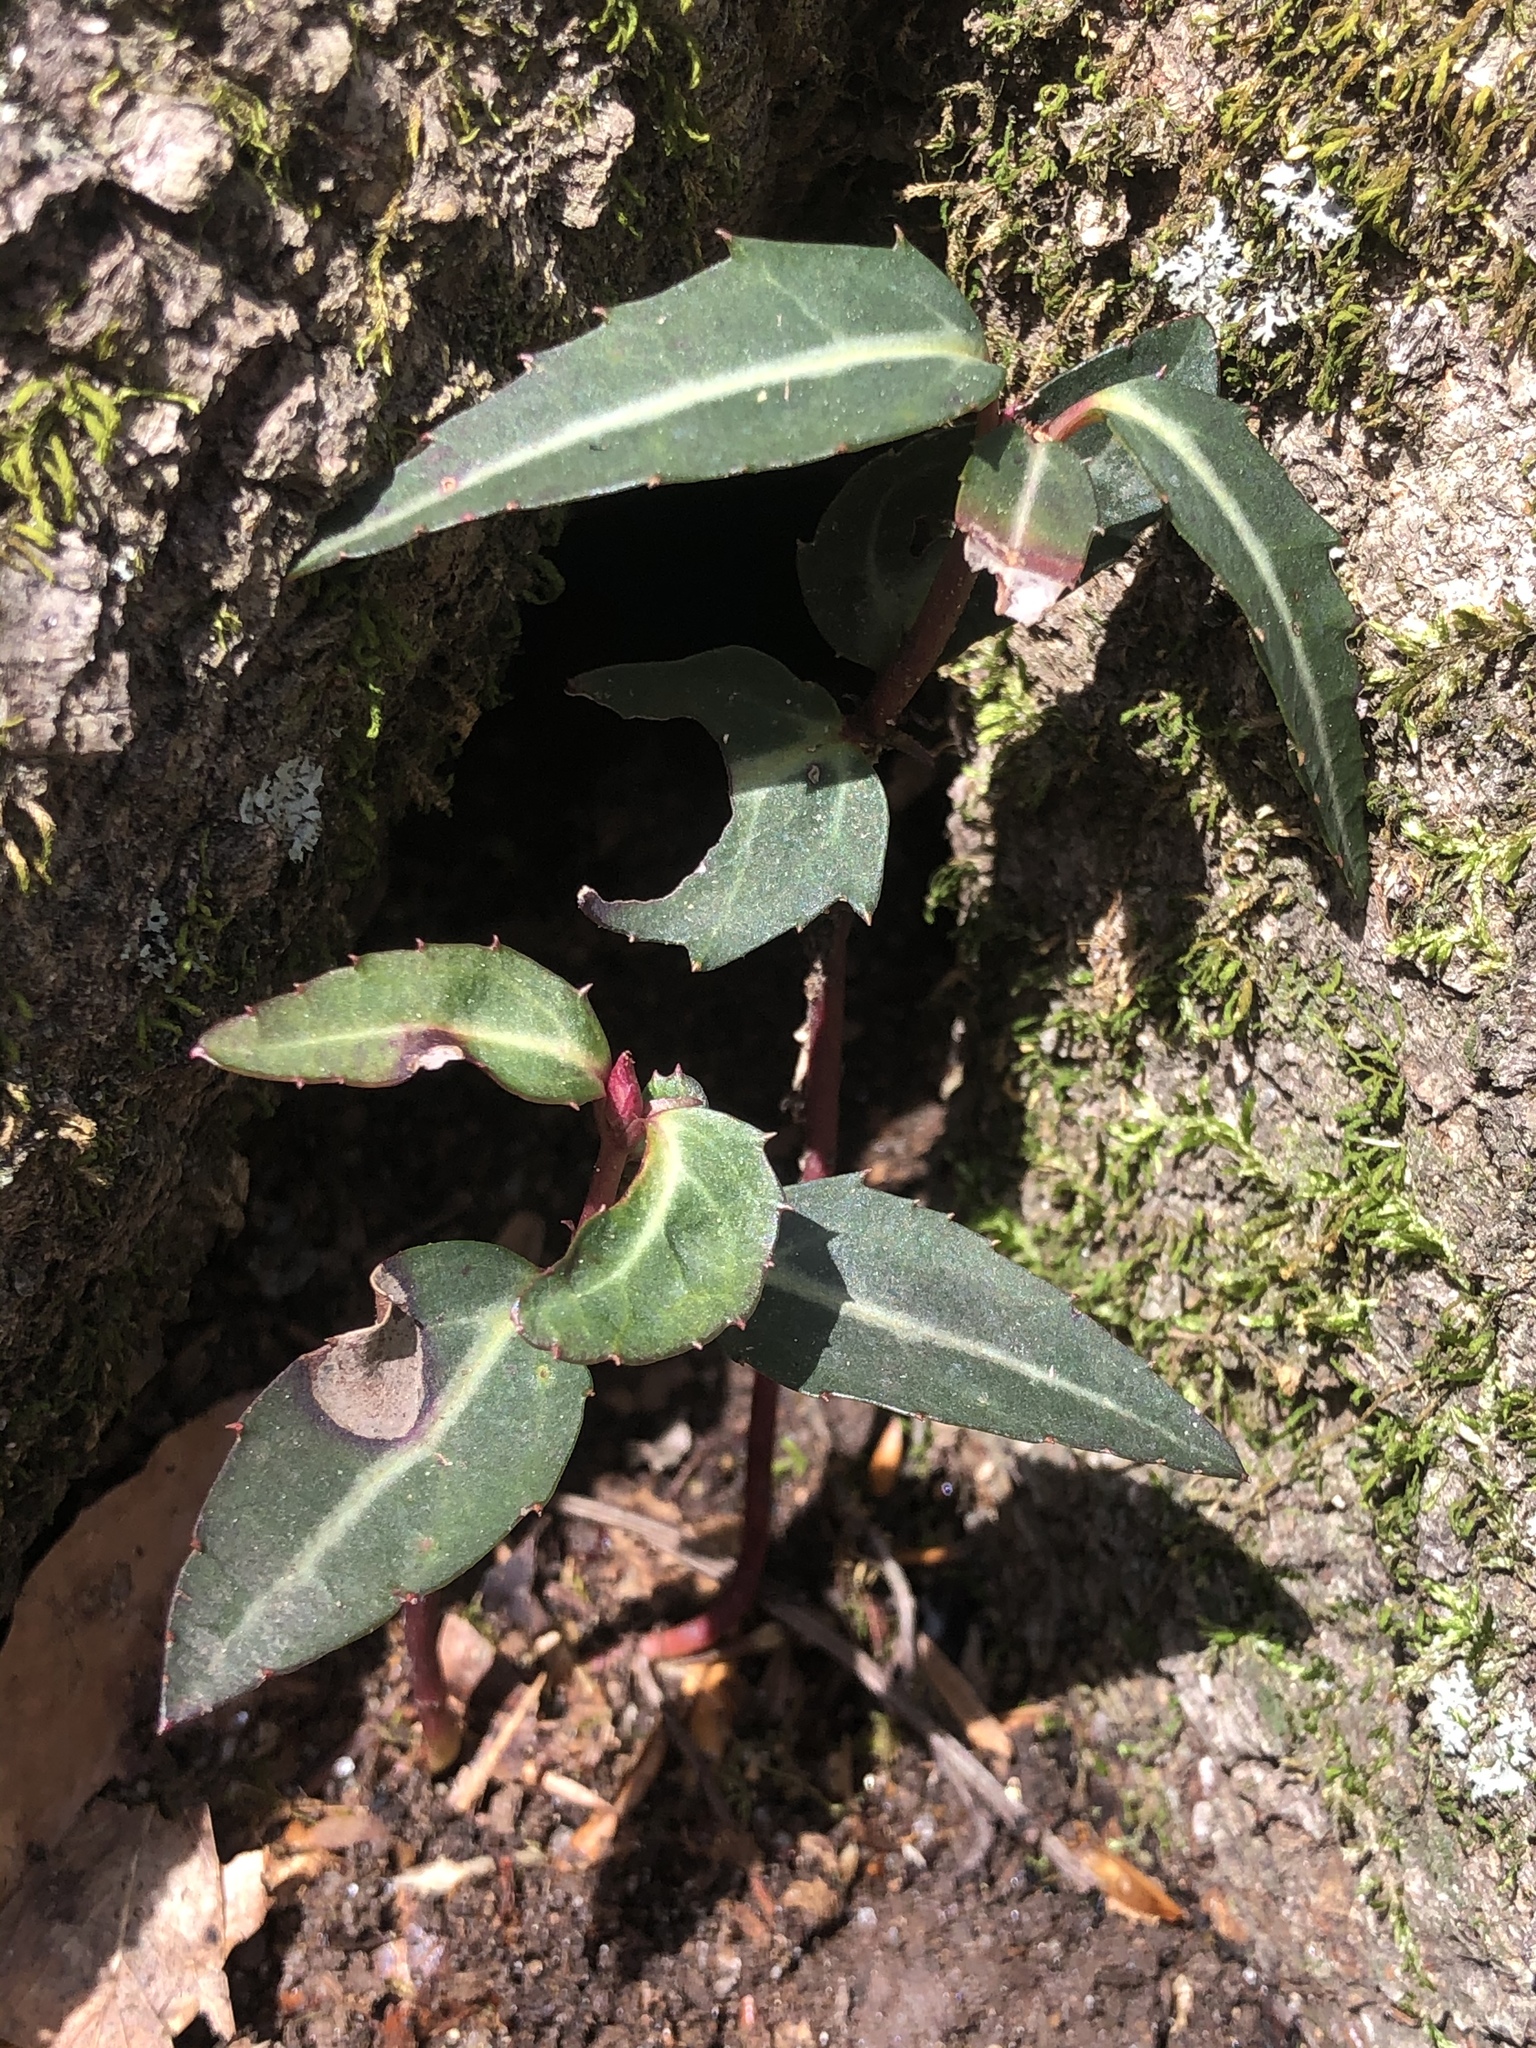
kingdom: Plantae
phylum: Tracheophyta
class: Magnoliopsida
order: Ericales
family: Ericaceae
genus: Chimaphila
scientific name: Chimaphila maculata
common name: Spotted pipsissewa
